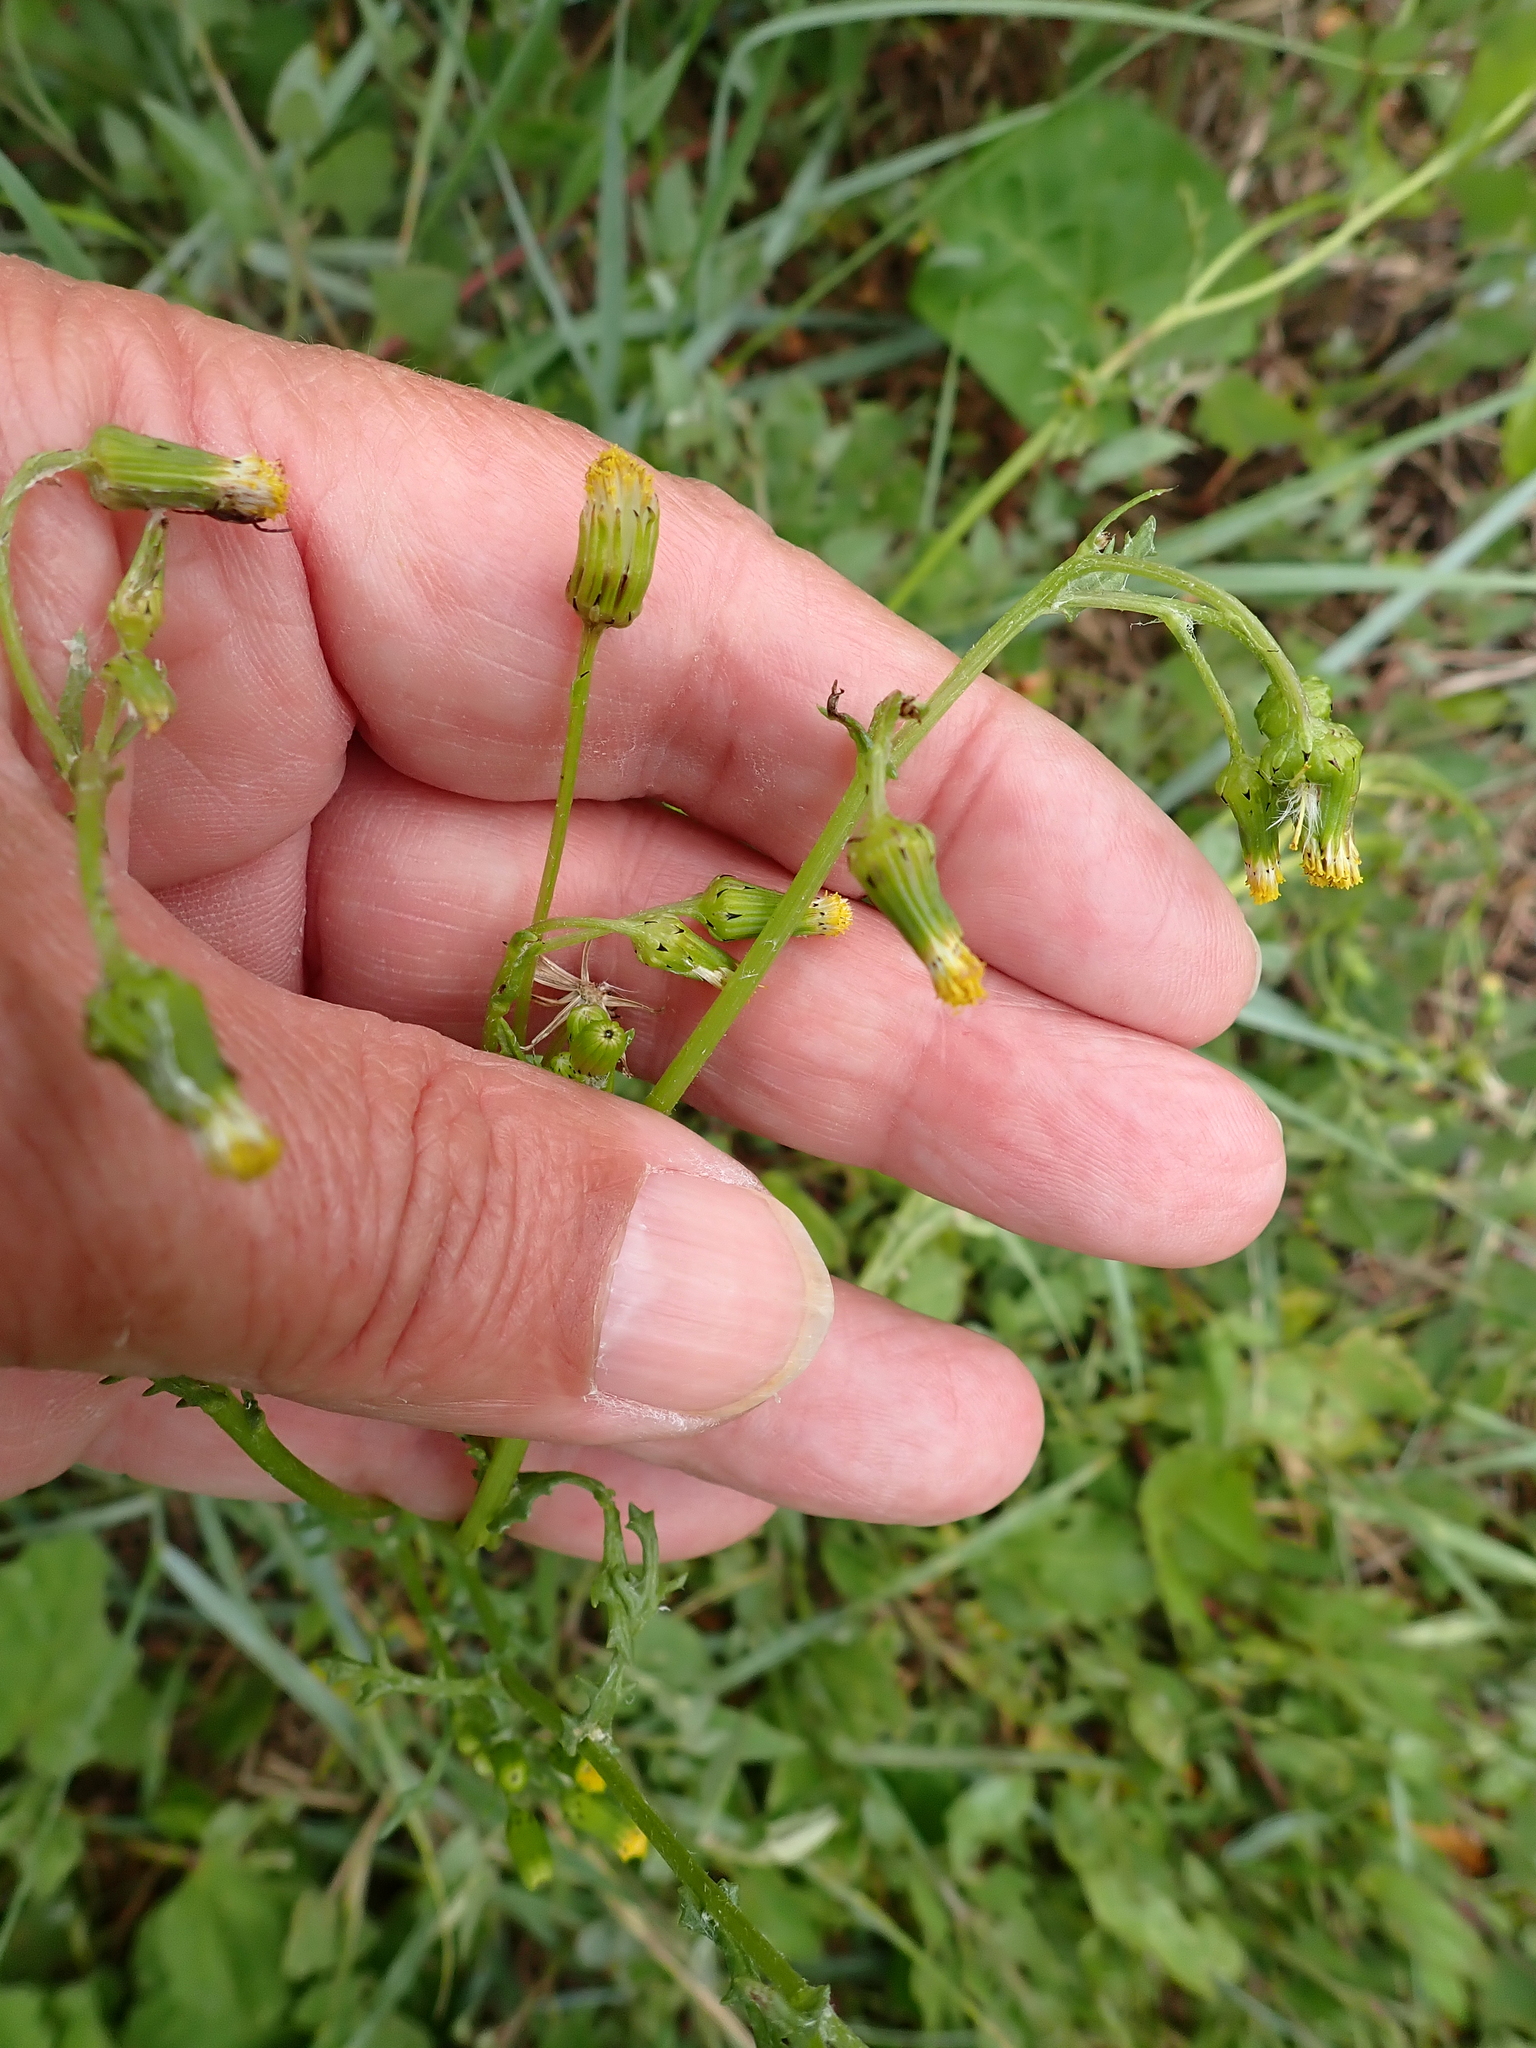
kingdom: Plantae
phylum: Tracheophyta
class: Magnoliopsida
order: Asterales
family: Asteraceae
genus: Senecio
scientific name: Senecio vulgaris
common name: Old-man-in-the-spring
